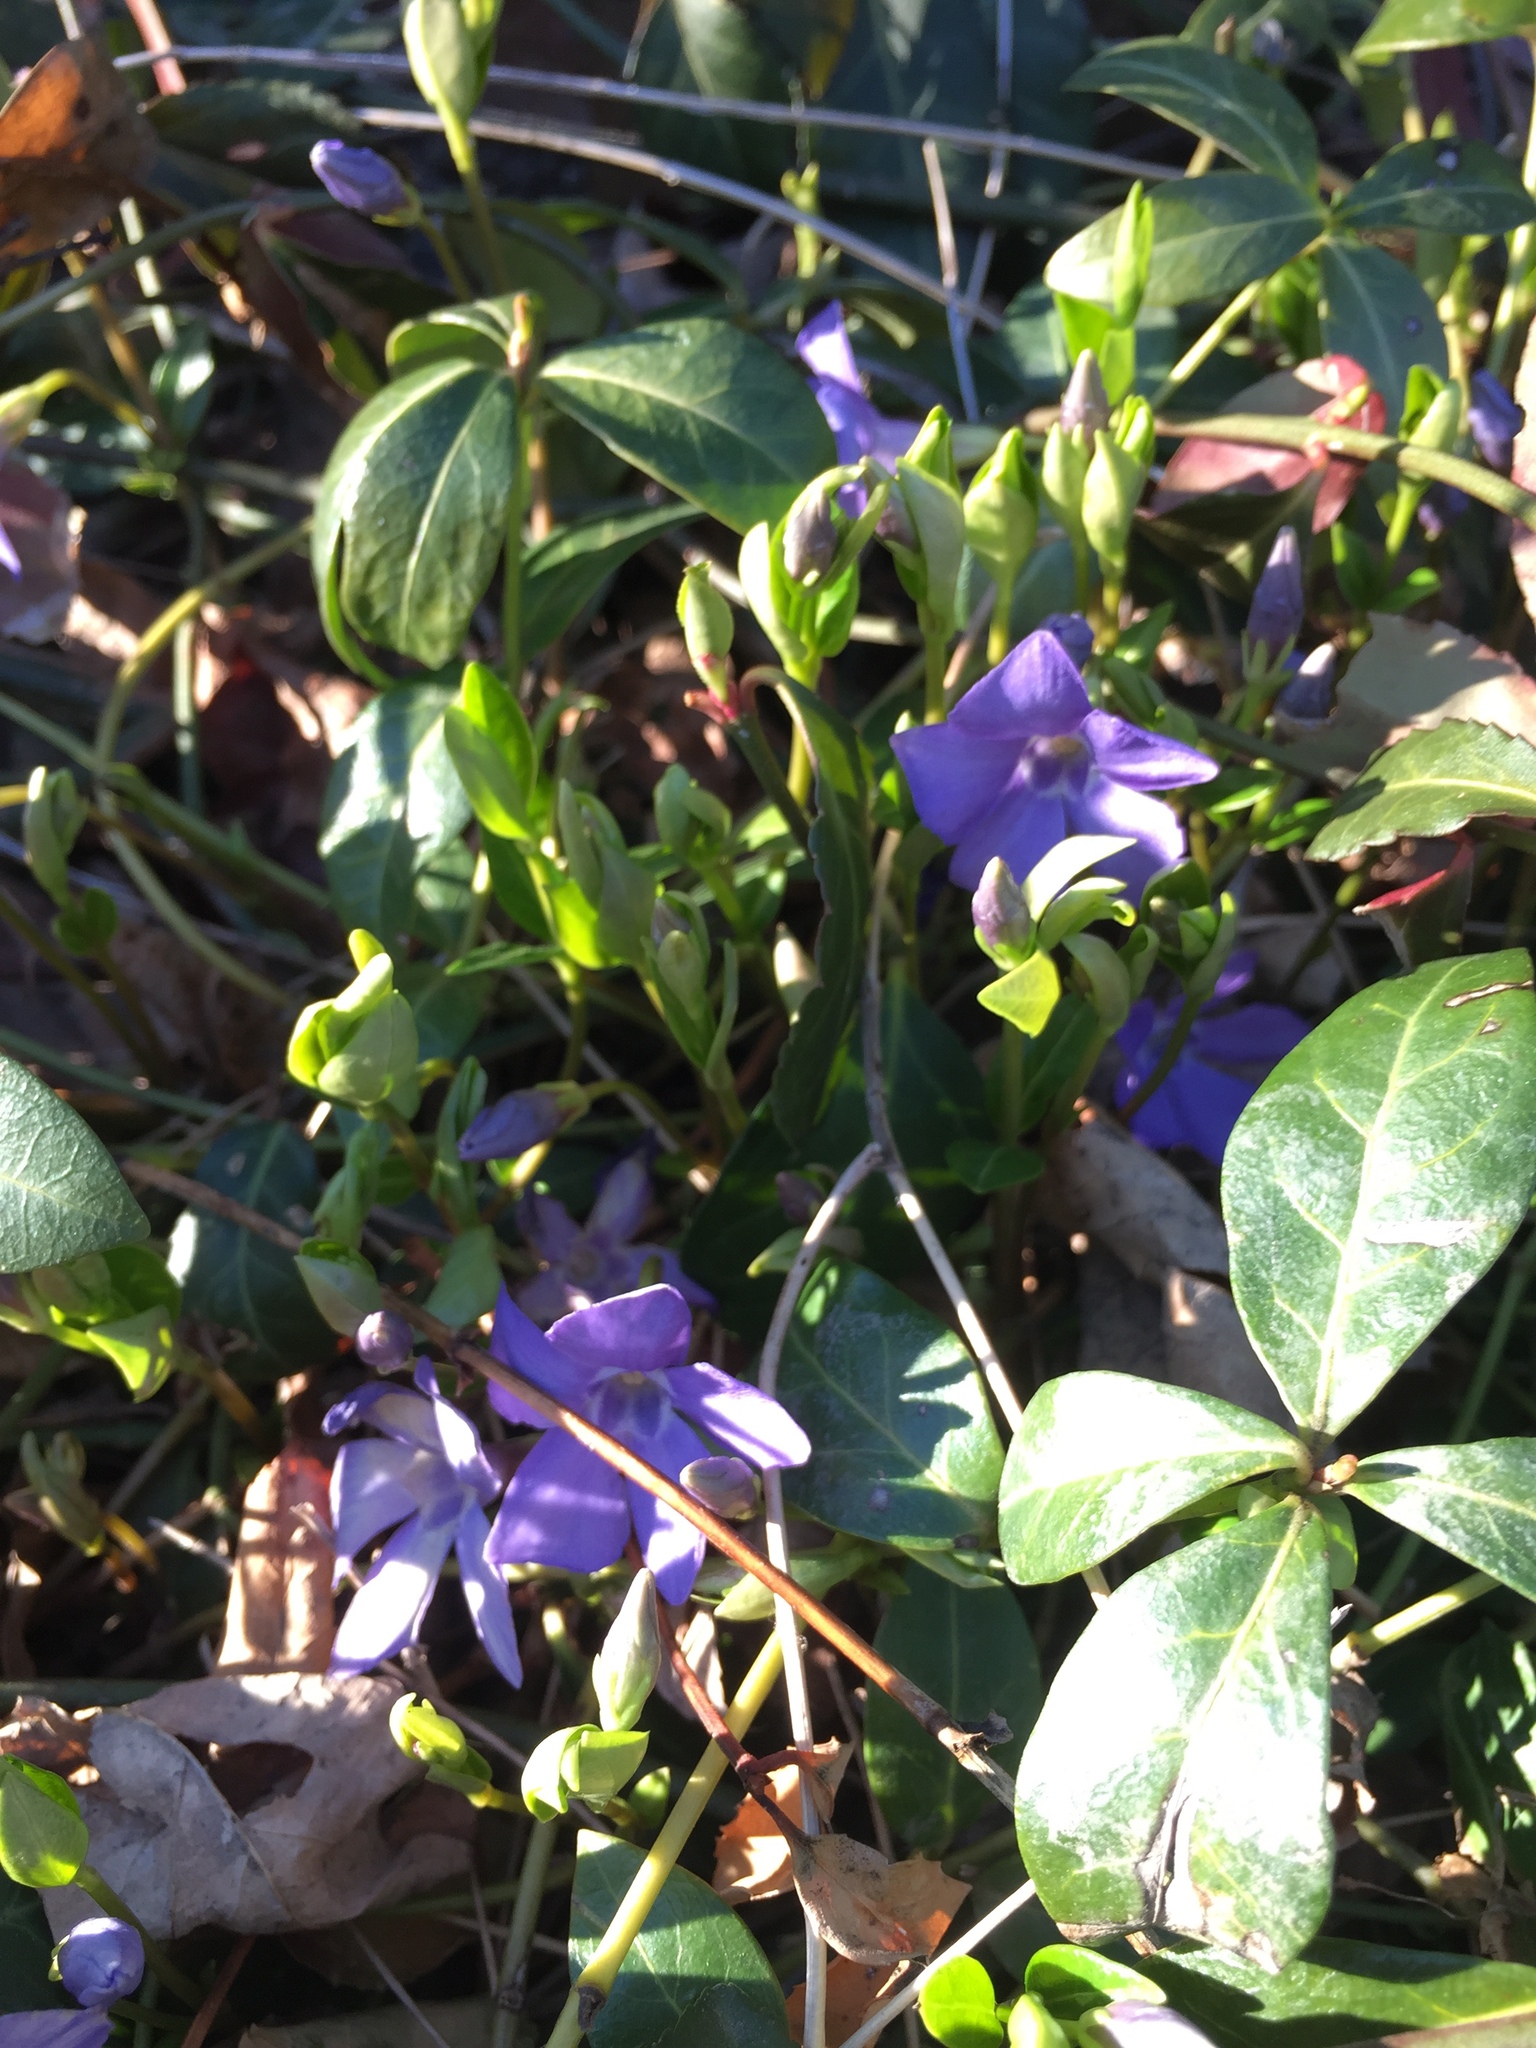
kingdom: Plantae
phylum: Tracheophyta
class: Magnoliopsida
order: Gentianales
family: Apocynaceae
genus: Vinca
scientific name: Vinca minor
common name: Lesser periwinkle
